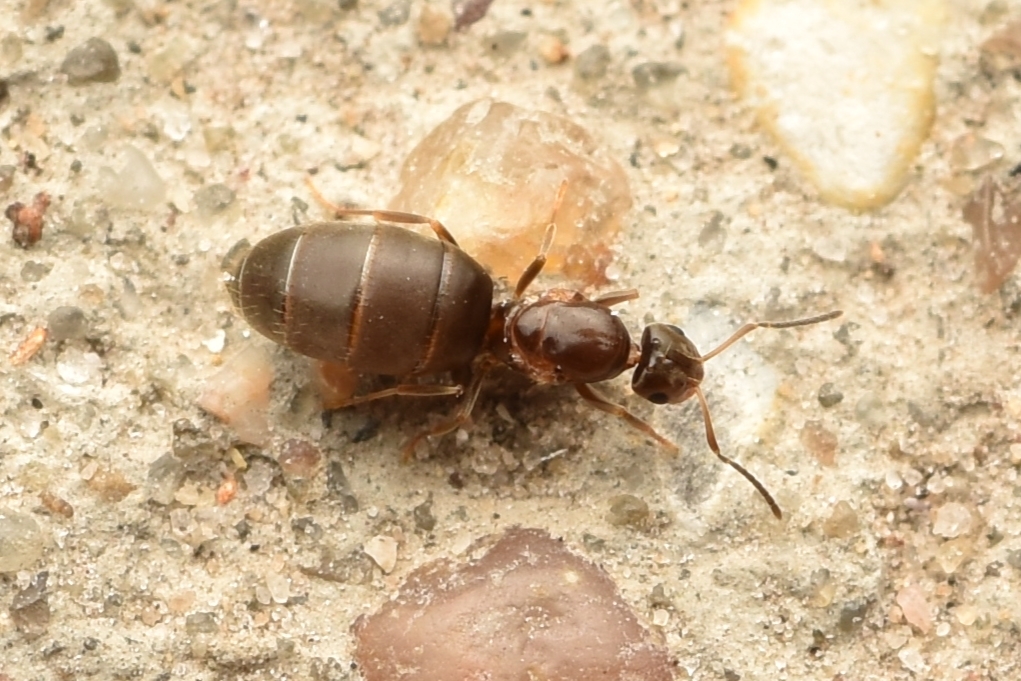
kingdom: Animalia
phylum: Arthropoda
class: Insecta
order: Hymenoptera
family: Formicidae
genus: Brachymyrmex
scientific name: Brachymyrmex patagonicus
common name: Dark rover ant
